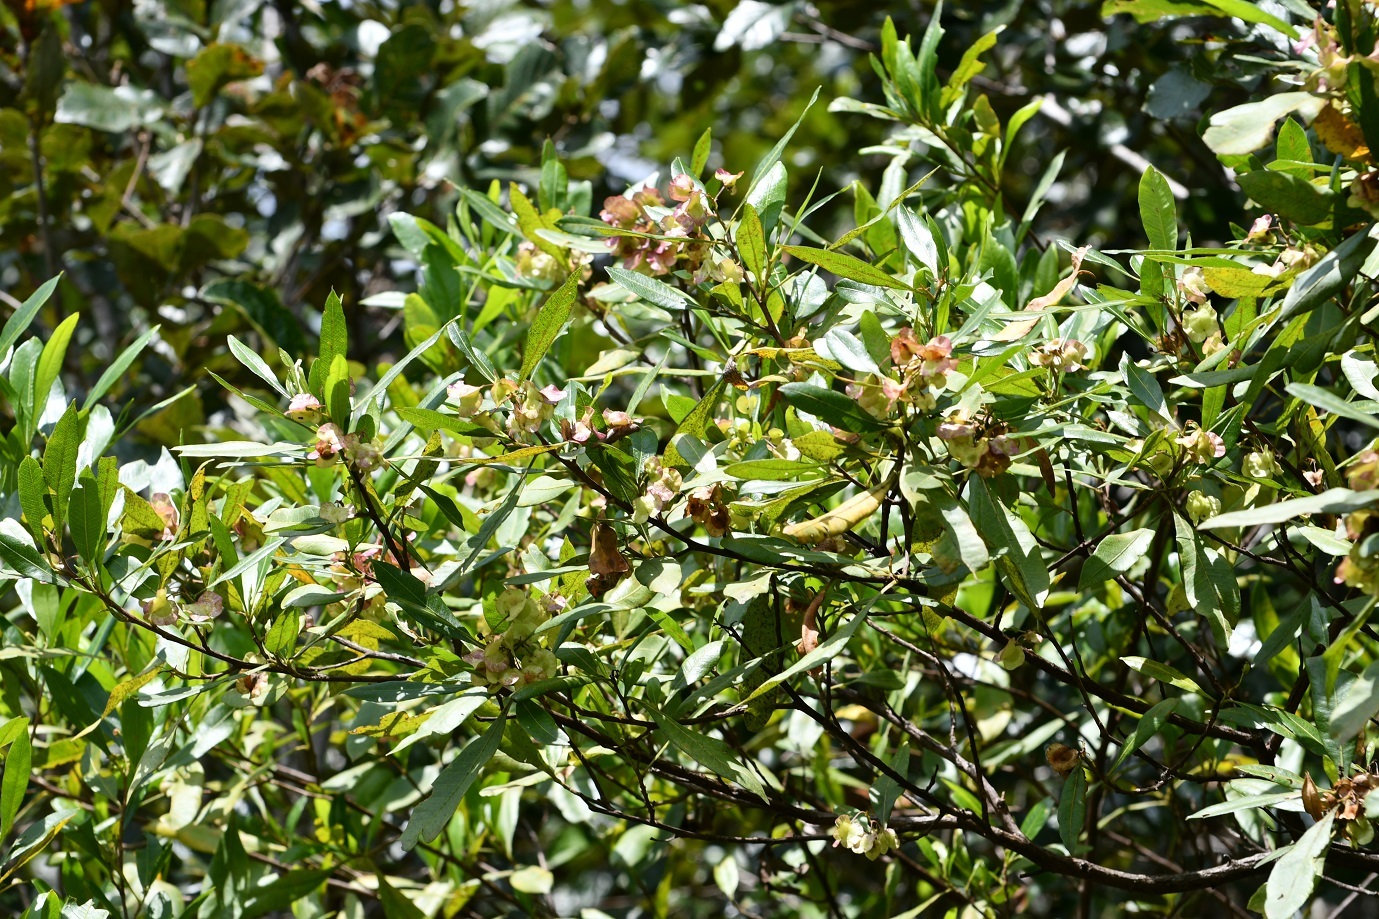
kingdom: Plantae
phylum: Tracheophyta
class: Magnoliopsida
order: Sapindales
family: Sapindaceae
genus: Dodonaea
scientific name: Dodonaea viscosa
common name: Hopbush
